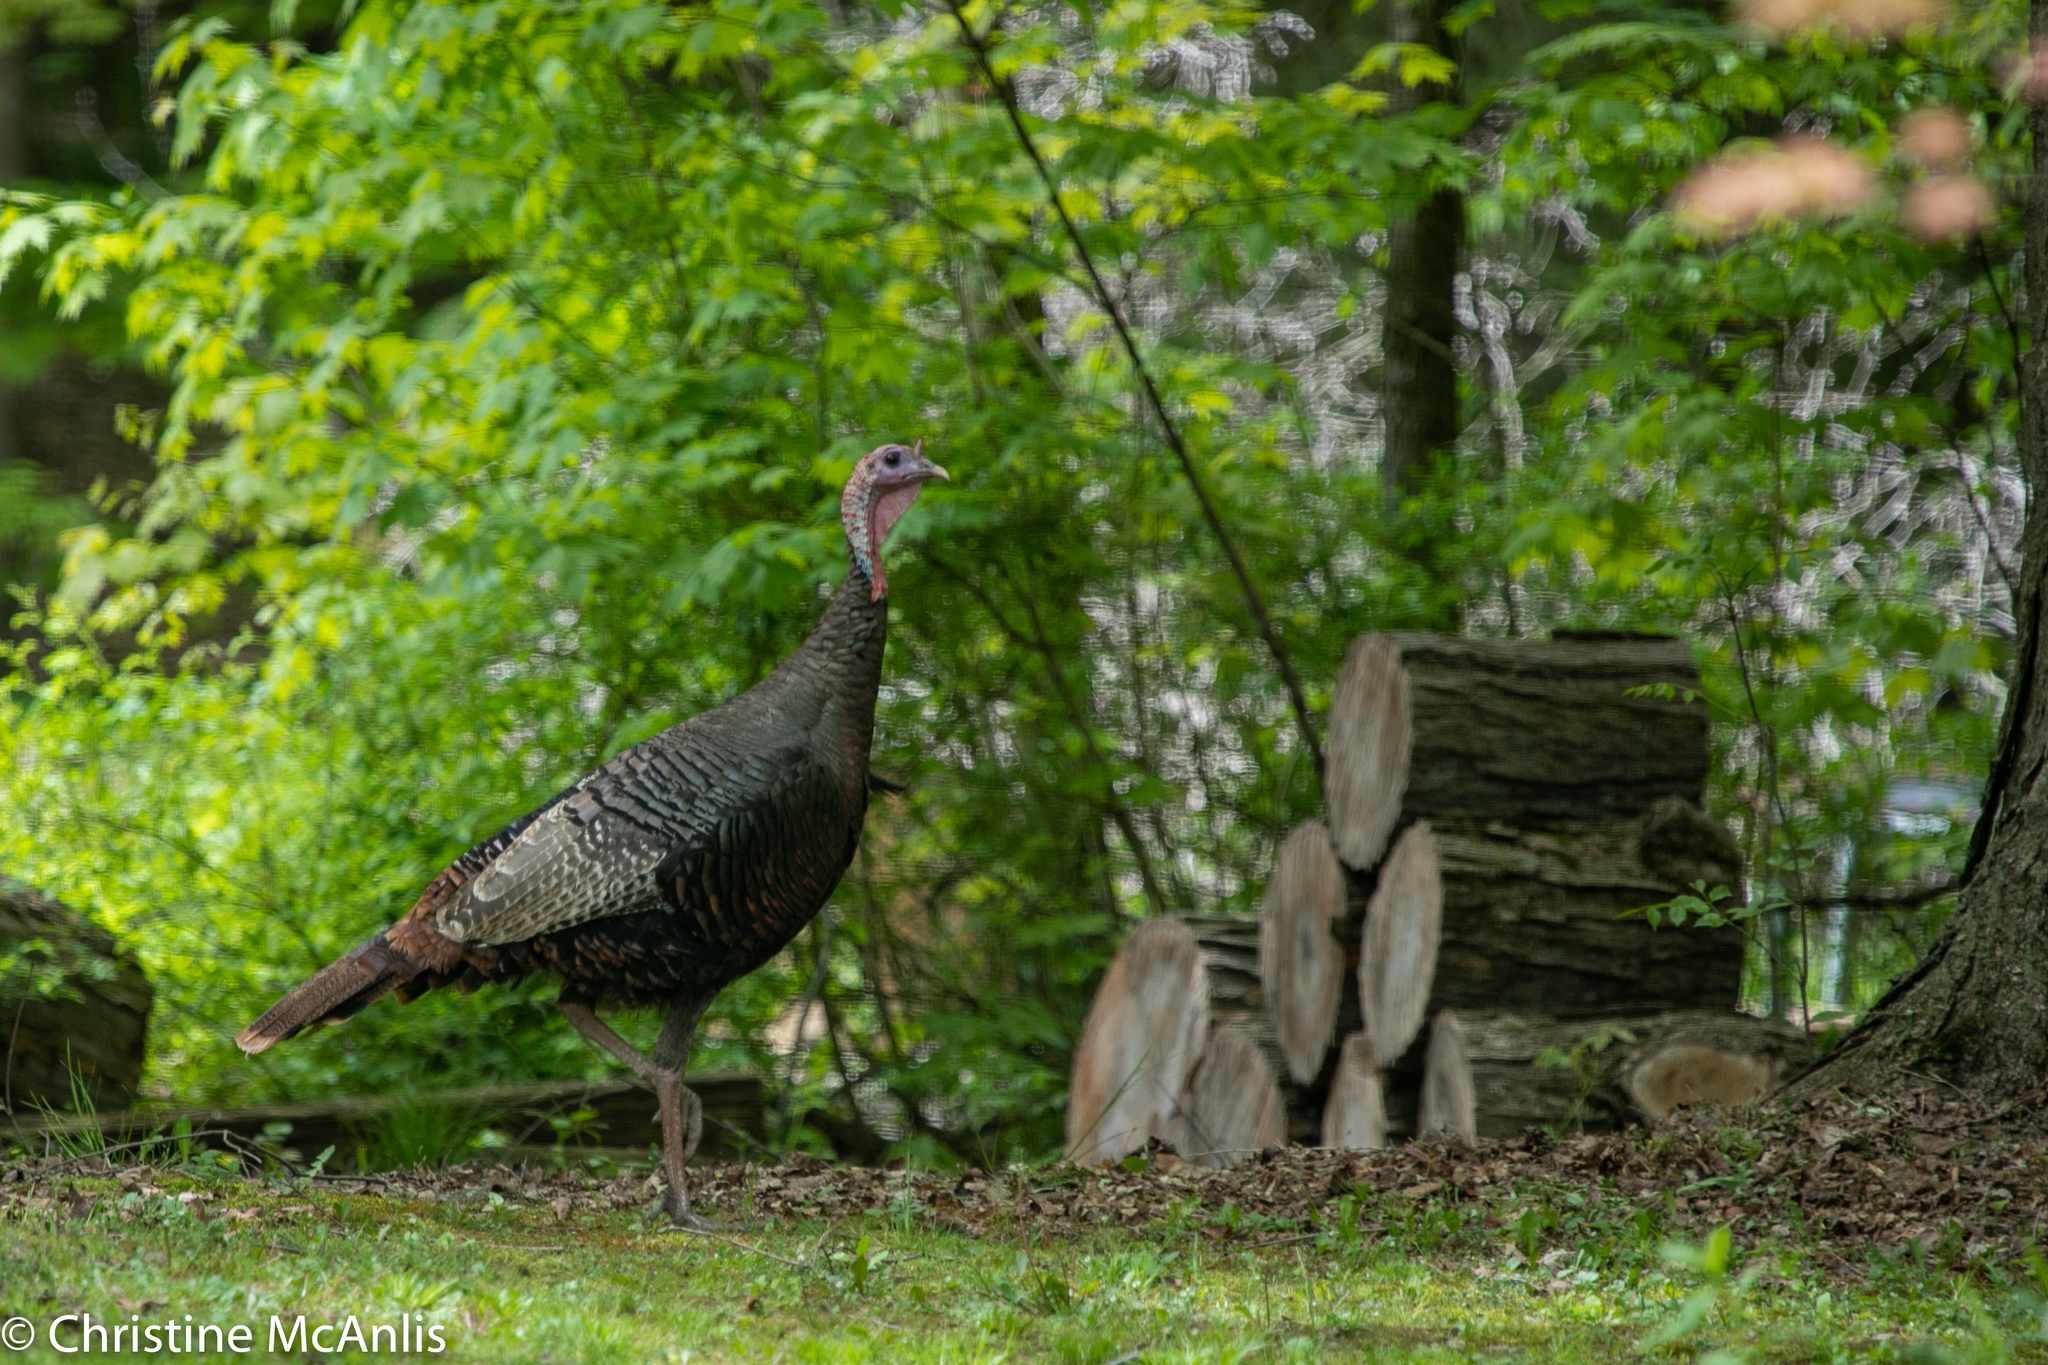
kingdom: Animalia
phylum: Chordata
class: Aves
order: Galliformes
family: Phasianidae
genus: Meleagris
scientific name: Meleagris gallopavo
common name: Wild turkey
